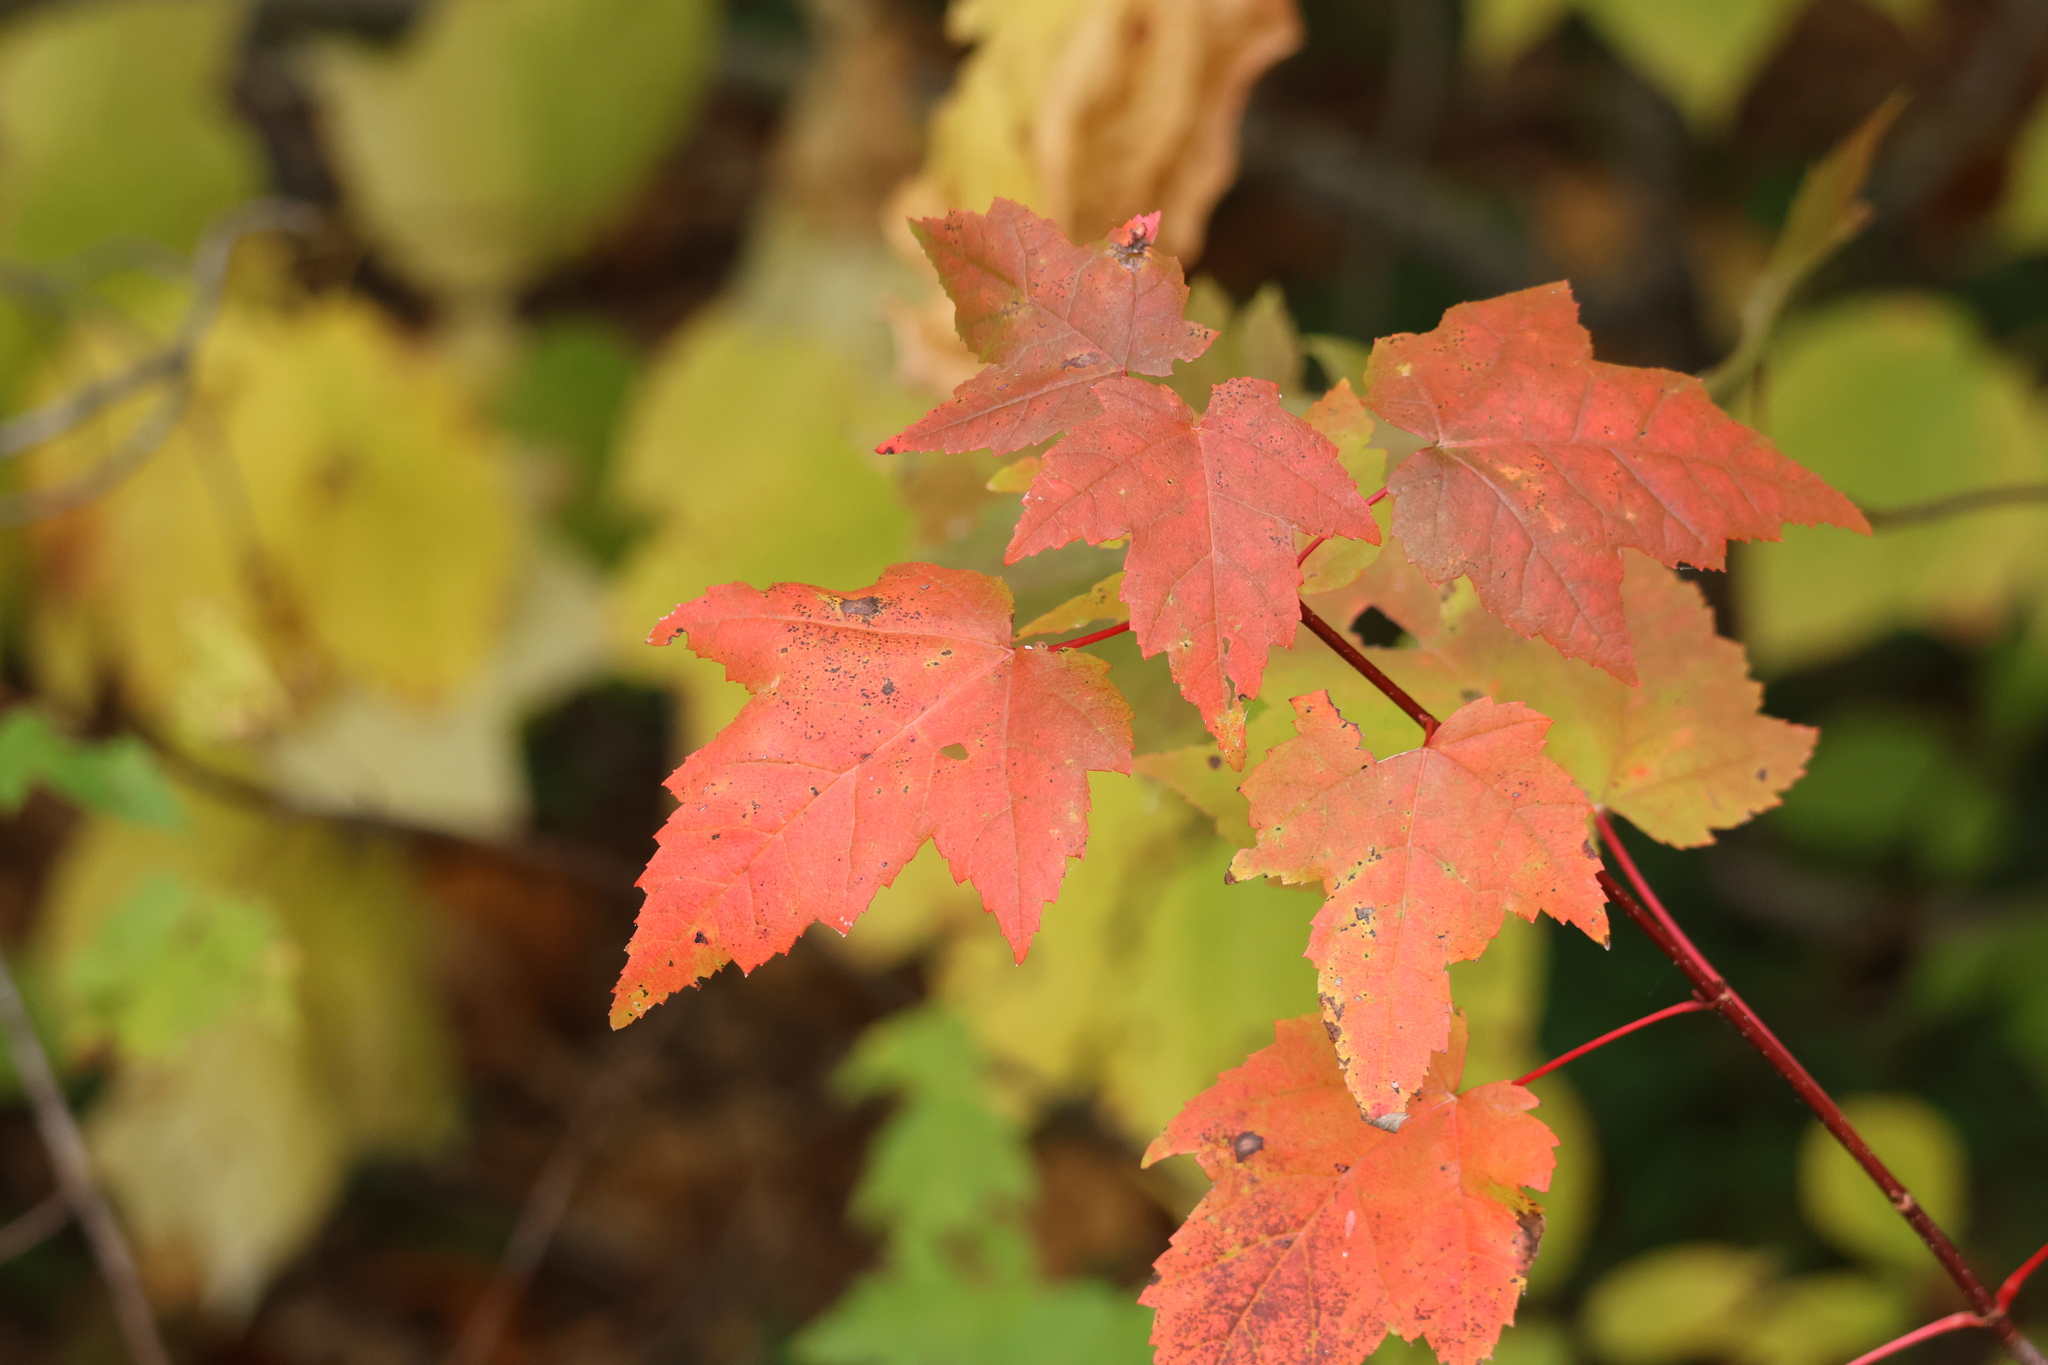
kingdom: Plantae
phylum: Tracheophyta
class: Magnoliopsida
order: Sapindales
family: Sapindaceae
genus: Acer
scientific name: Acer rubrum
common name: Red maple
